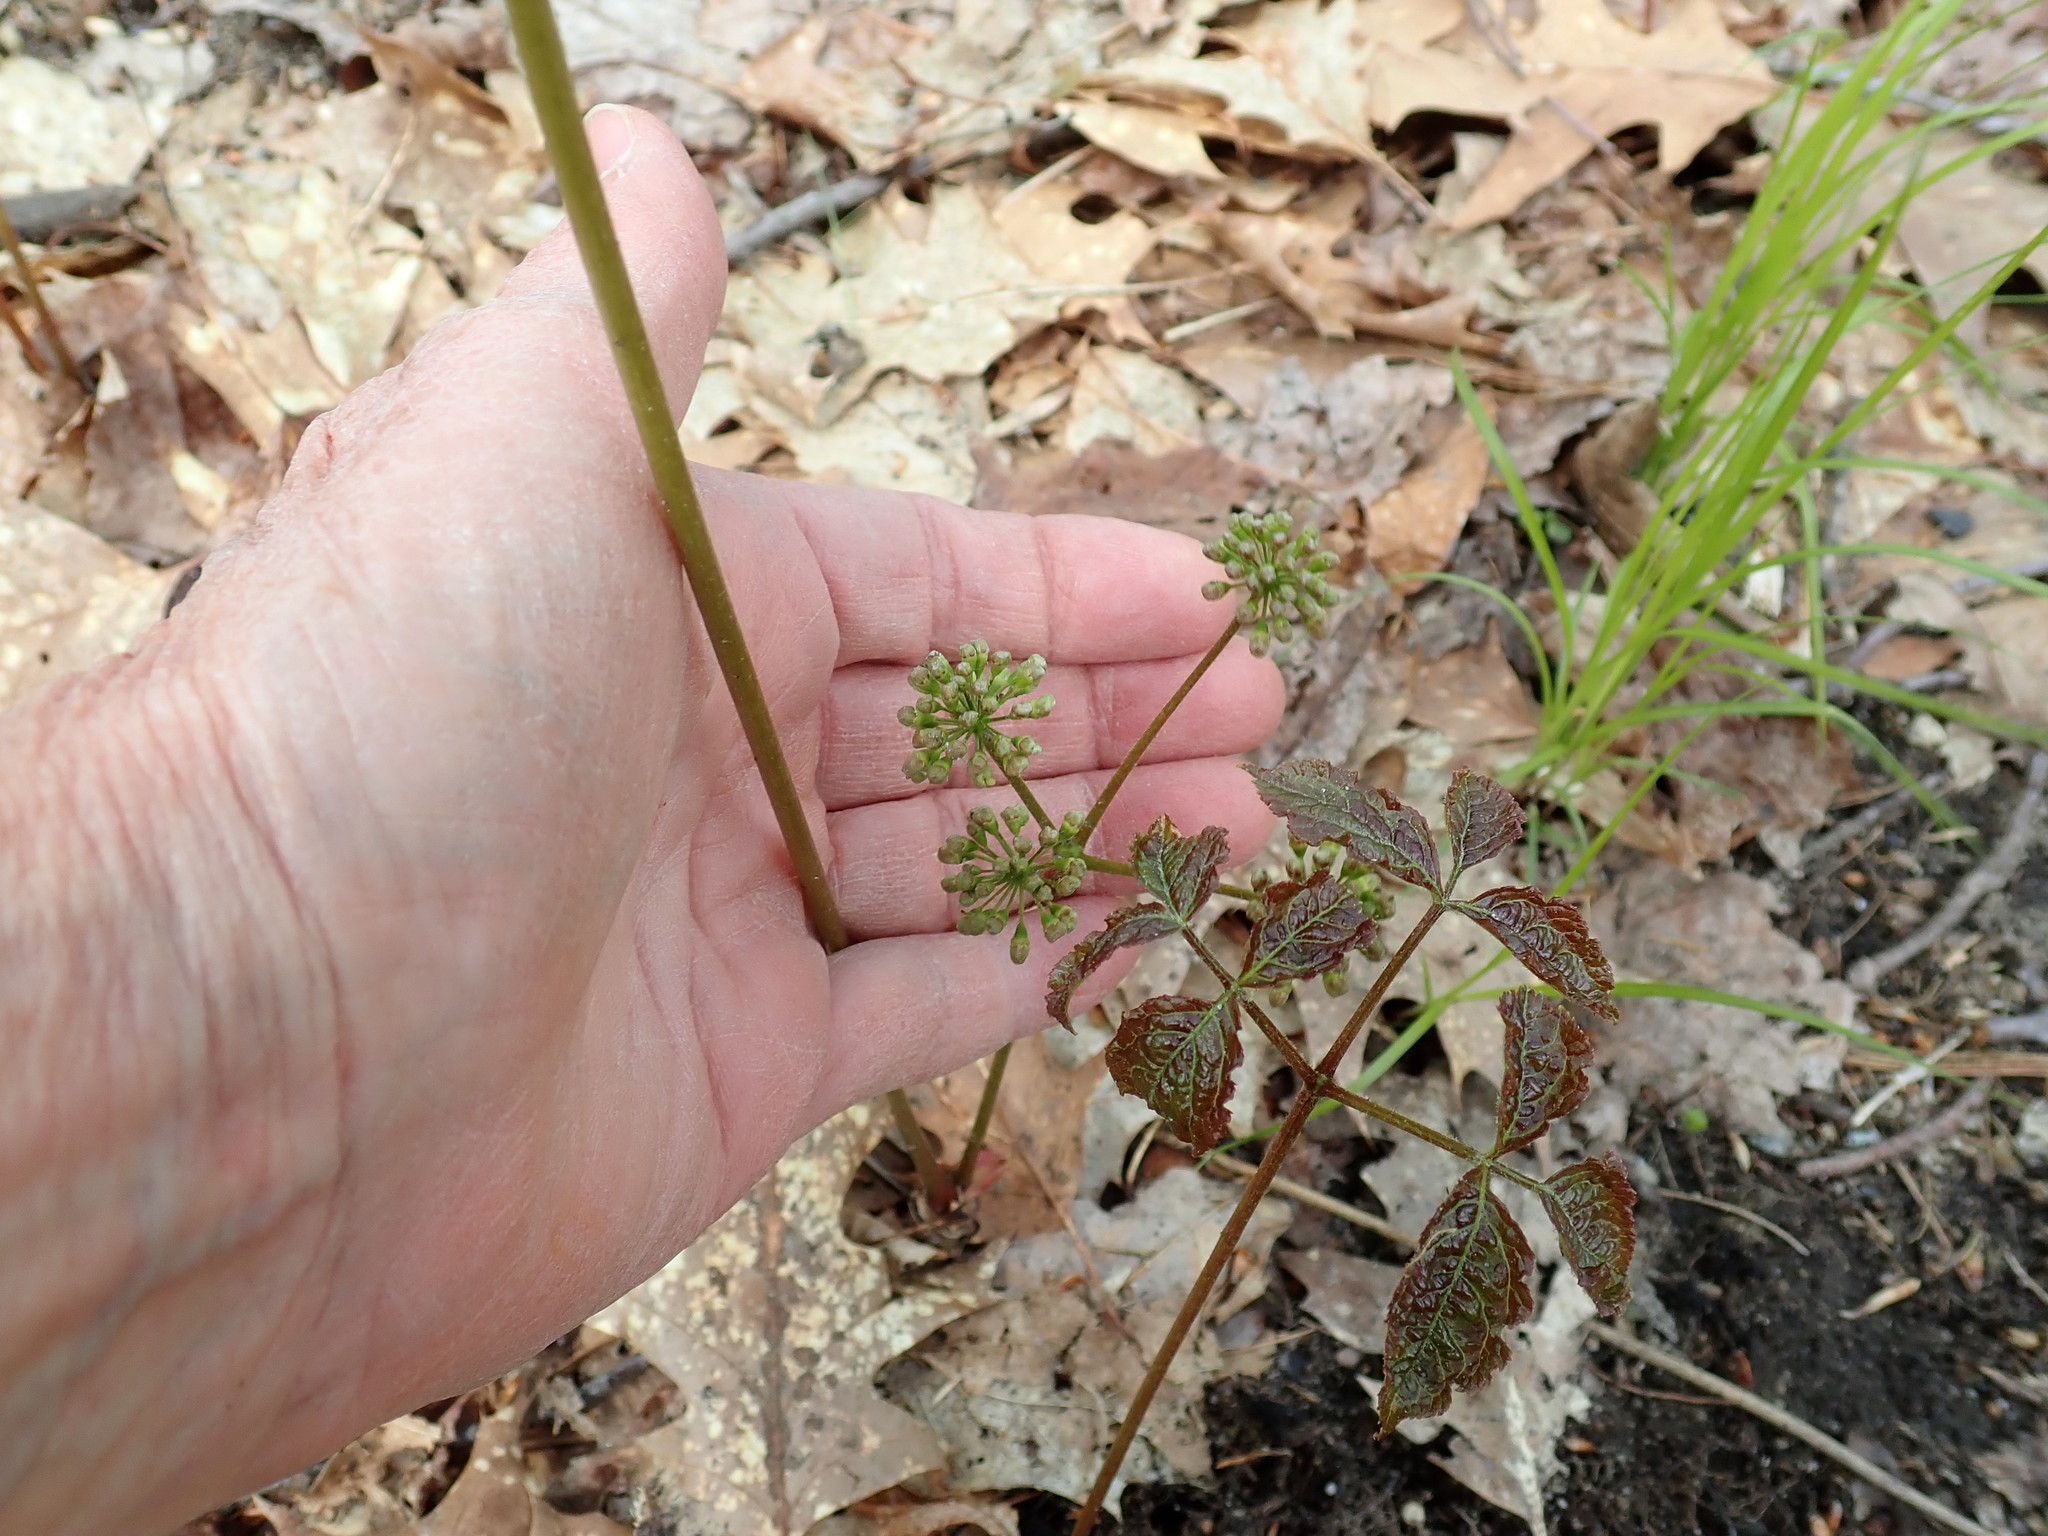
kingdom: Plantae
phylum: Tracheophyta
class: Magnoliopsida
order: Apiales
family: Araliaceae
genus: Aralia
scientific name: Aralia nudicaulis
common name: Wild sarsaparilla
